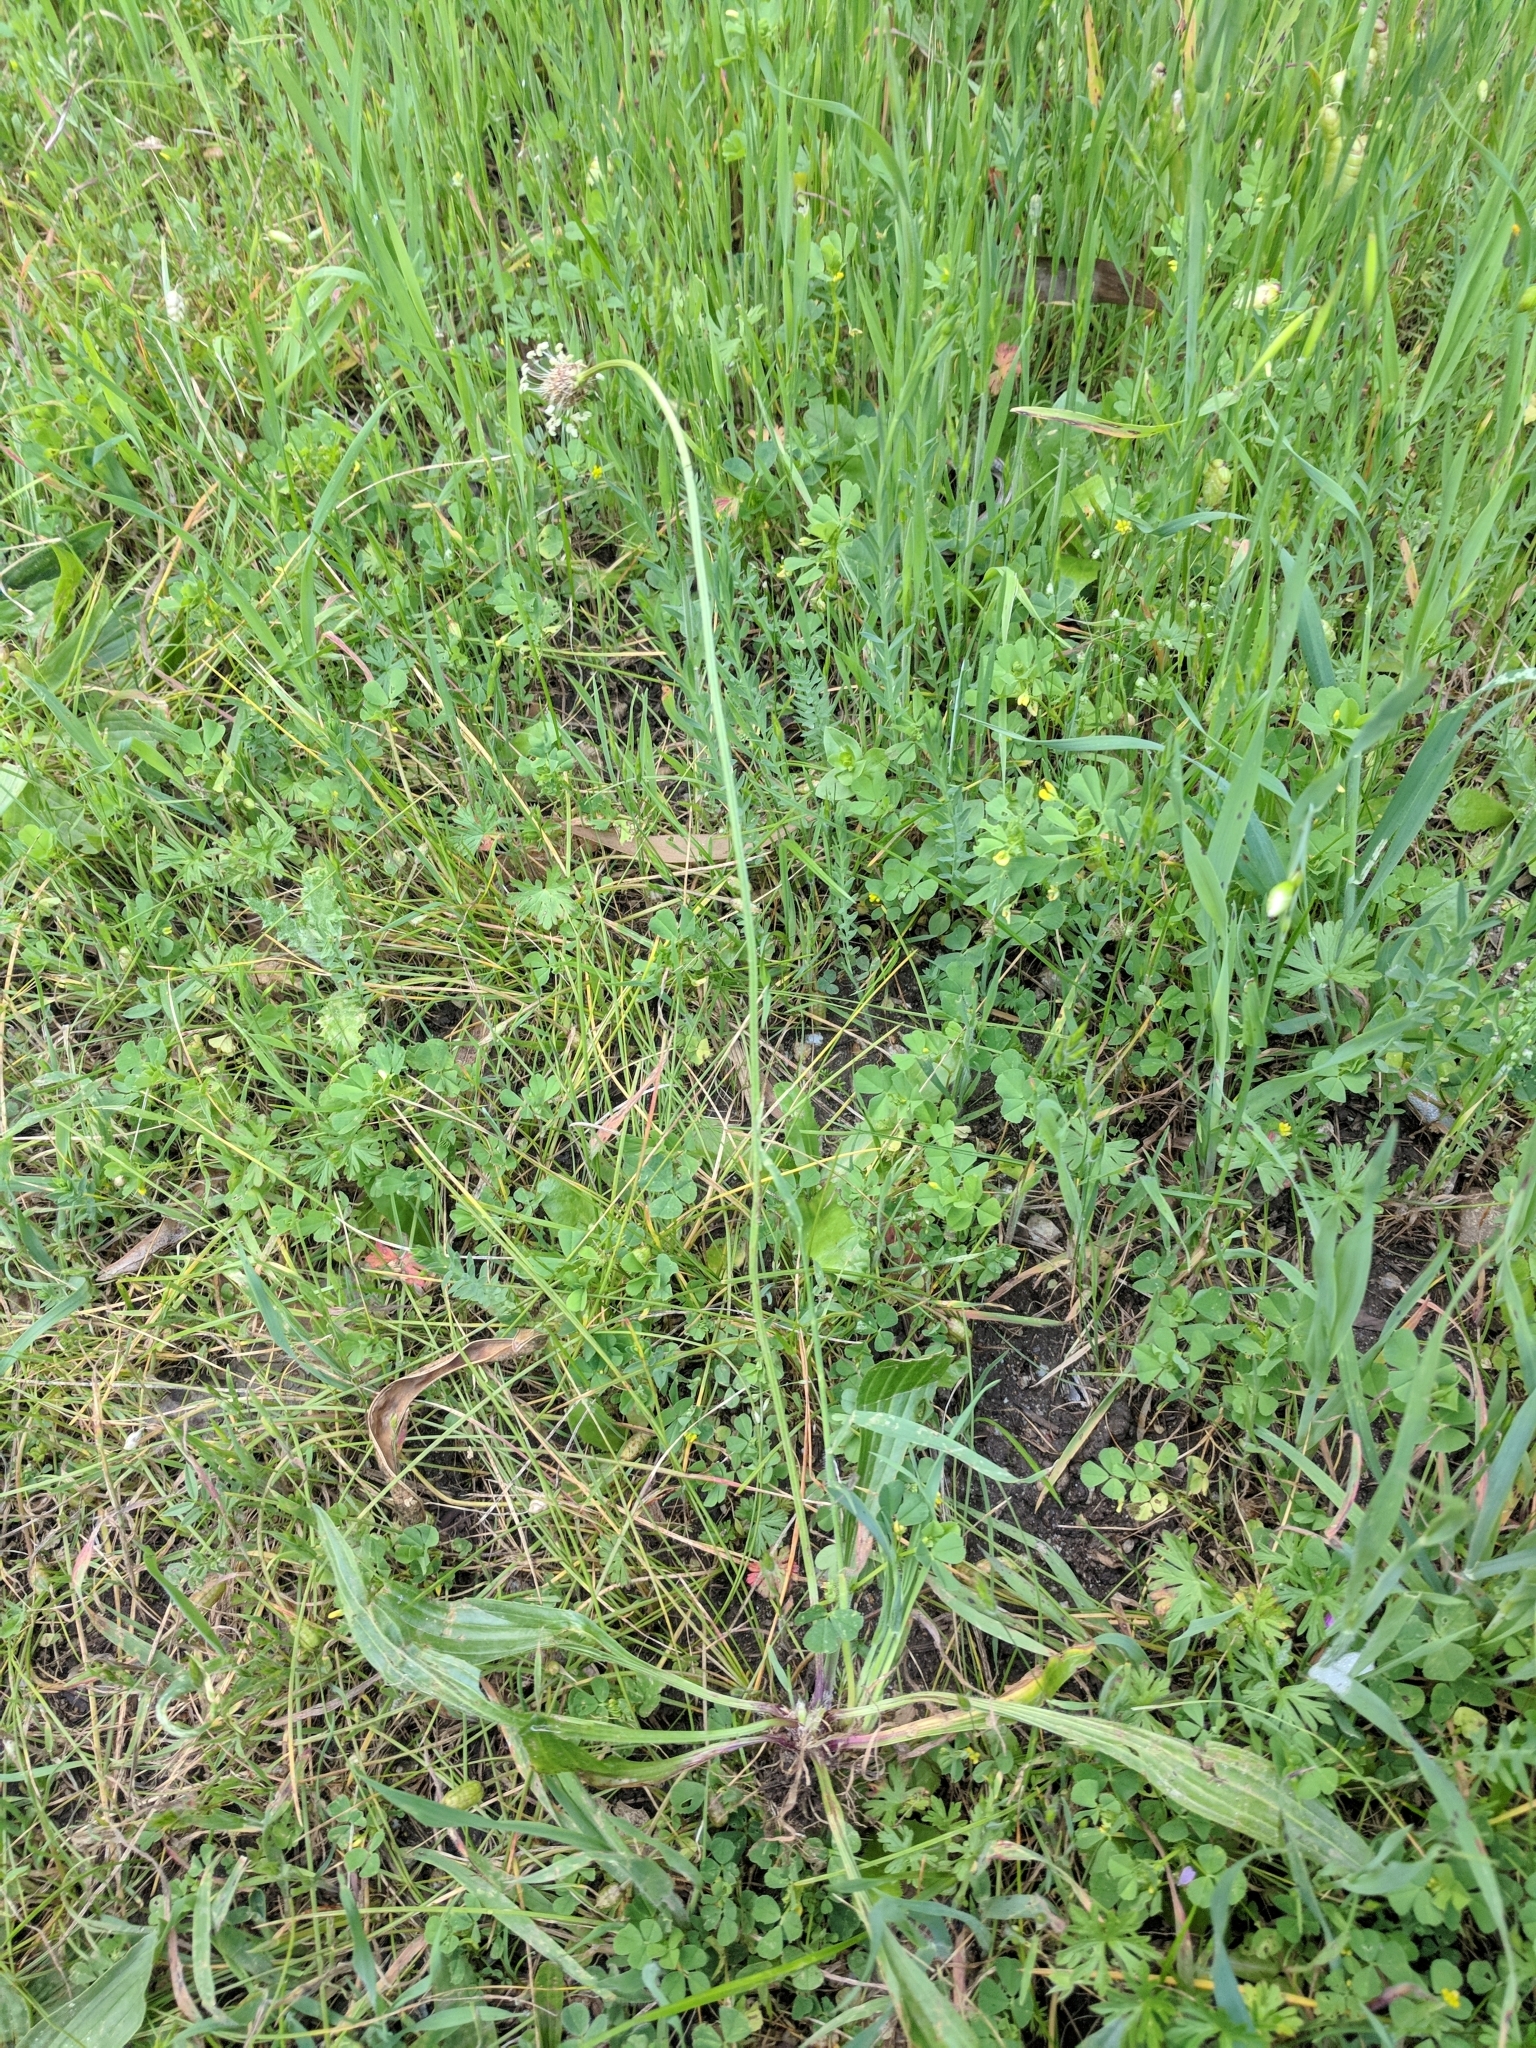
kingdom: Plantae
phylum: Tracheophyta
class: Magnoliopsida
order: Lamiales
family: Plantaginaceae
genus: Plantago
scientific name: Plantago lanceolata
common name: Ribwort plantain
